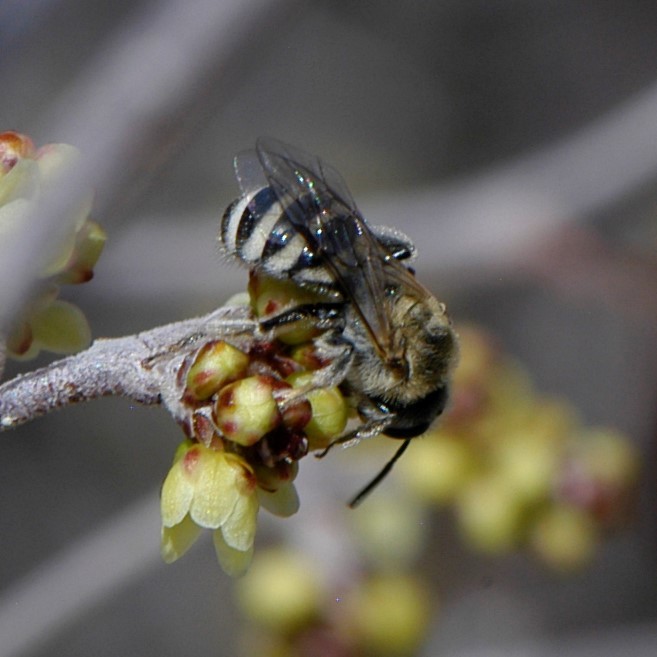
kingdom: Animalia
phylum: Arthropoda
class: Insecta
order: Hymenoptera
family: Halictidae
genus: Lasioglossum
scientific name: Lasioglossum sisymbrii
